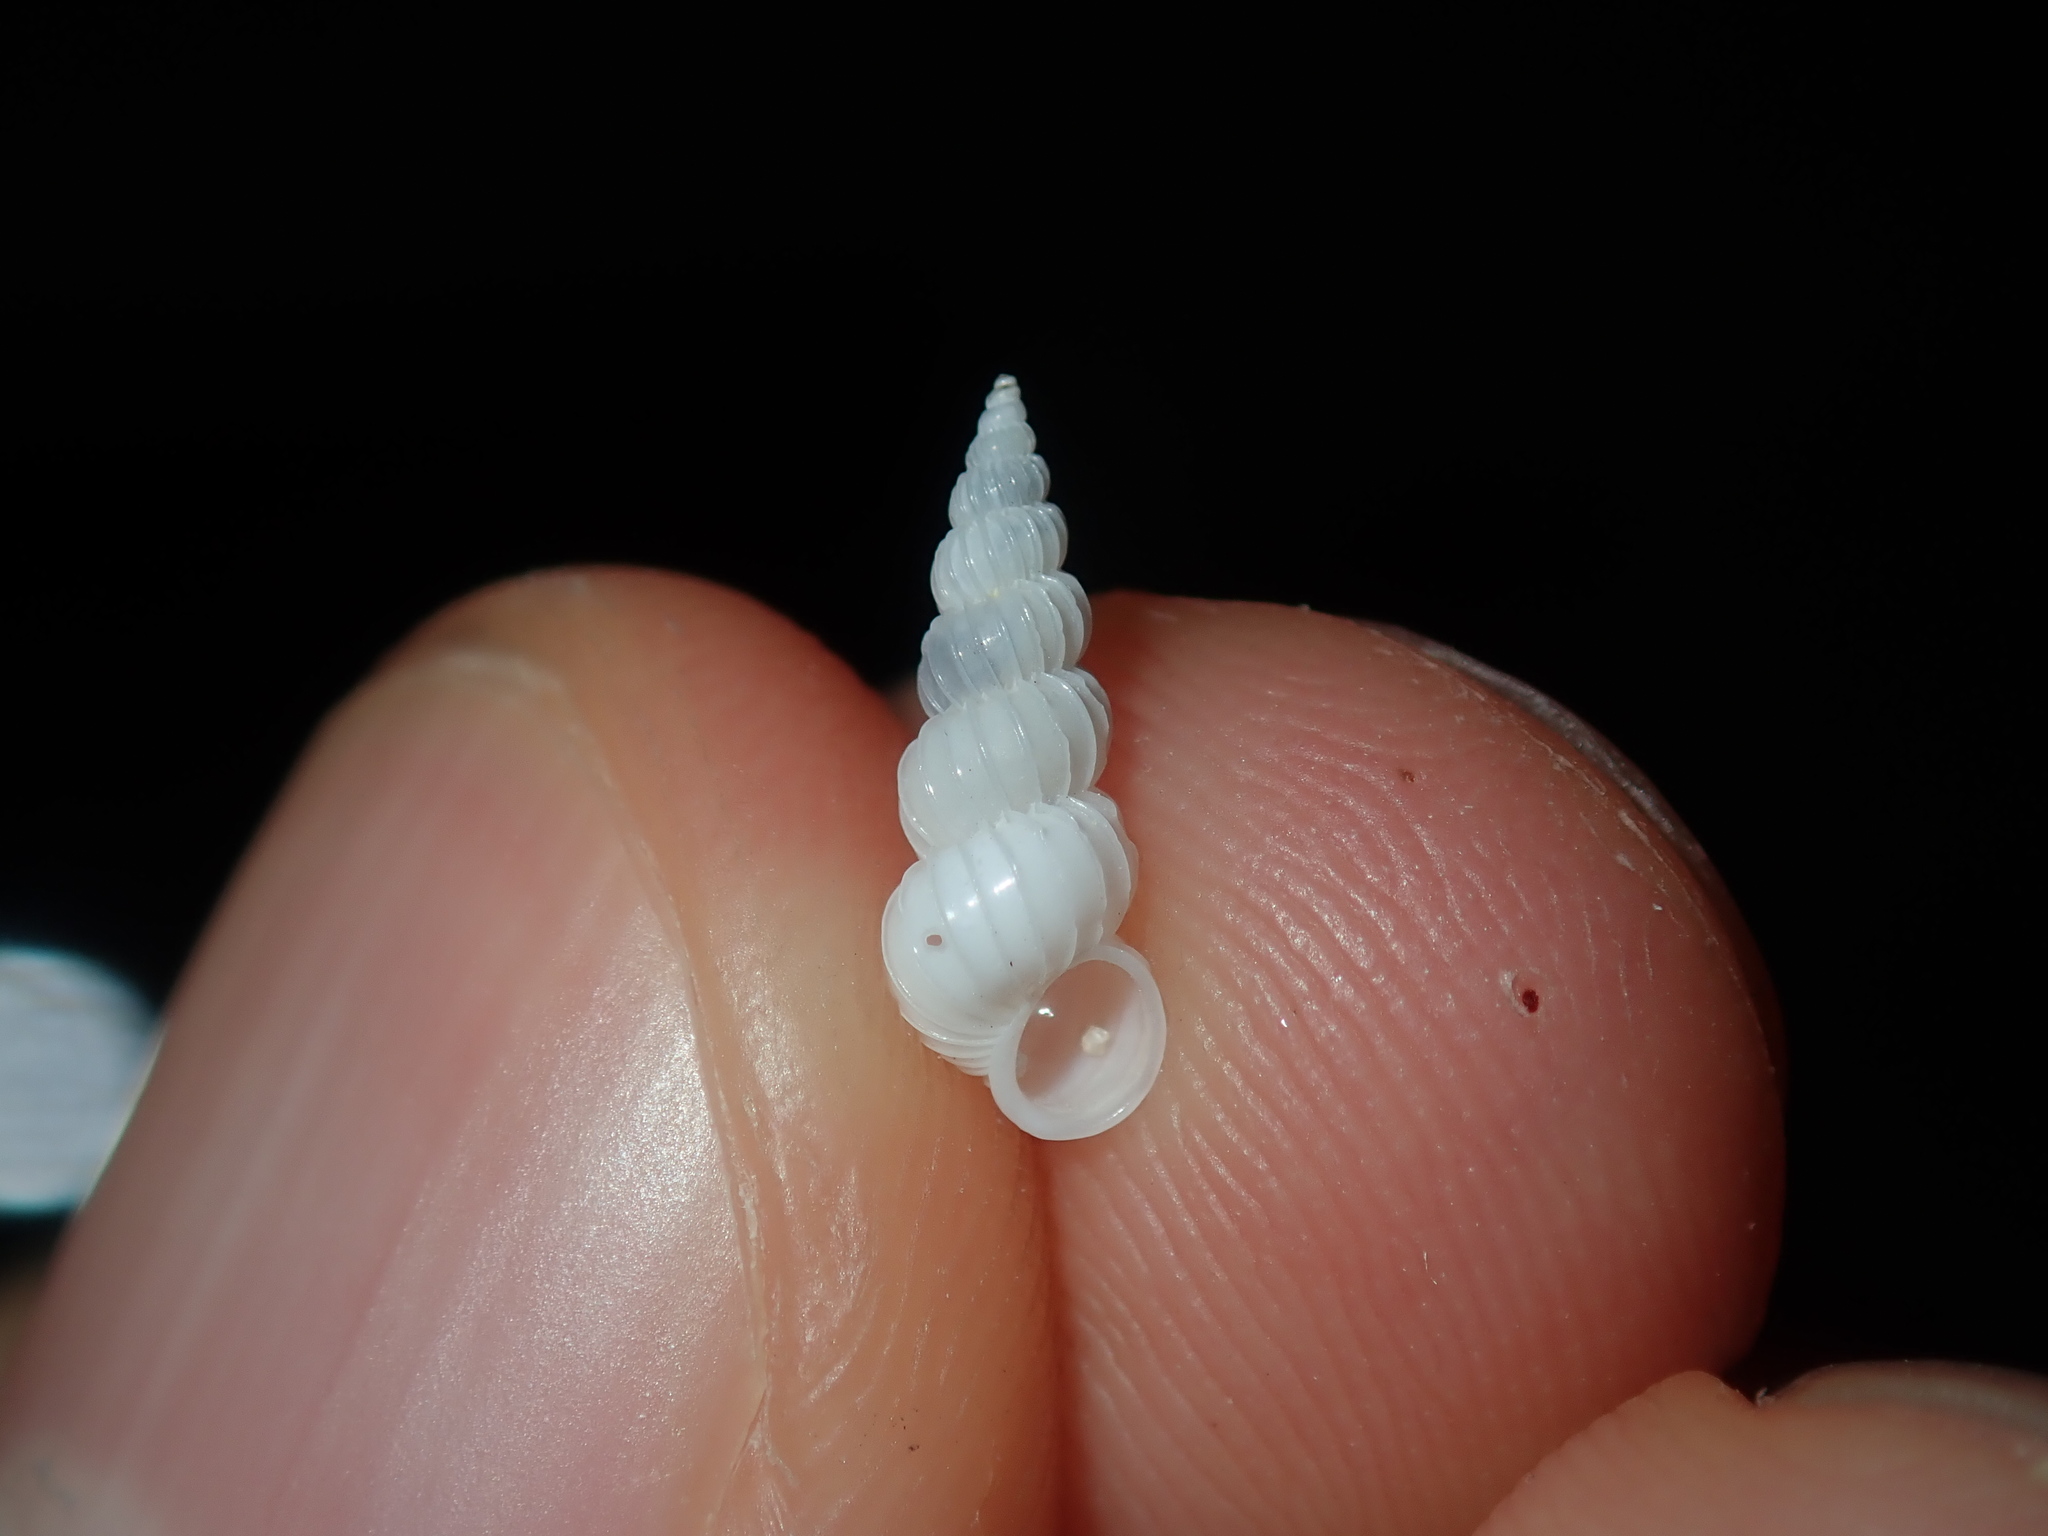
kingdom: Animalia
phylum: Mollusca
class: Gastropoda
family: Epitoniidae
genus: Epitonium
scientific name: Epitonium jukesianum
